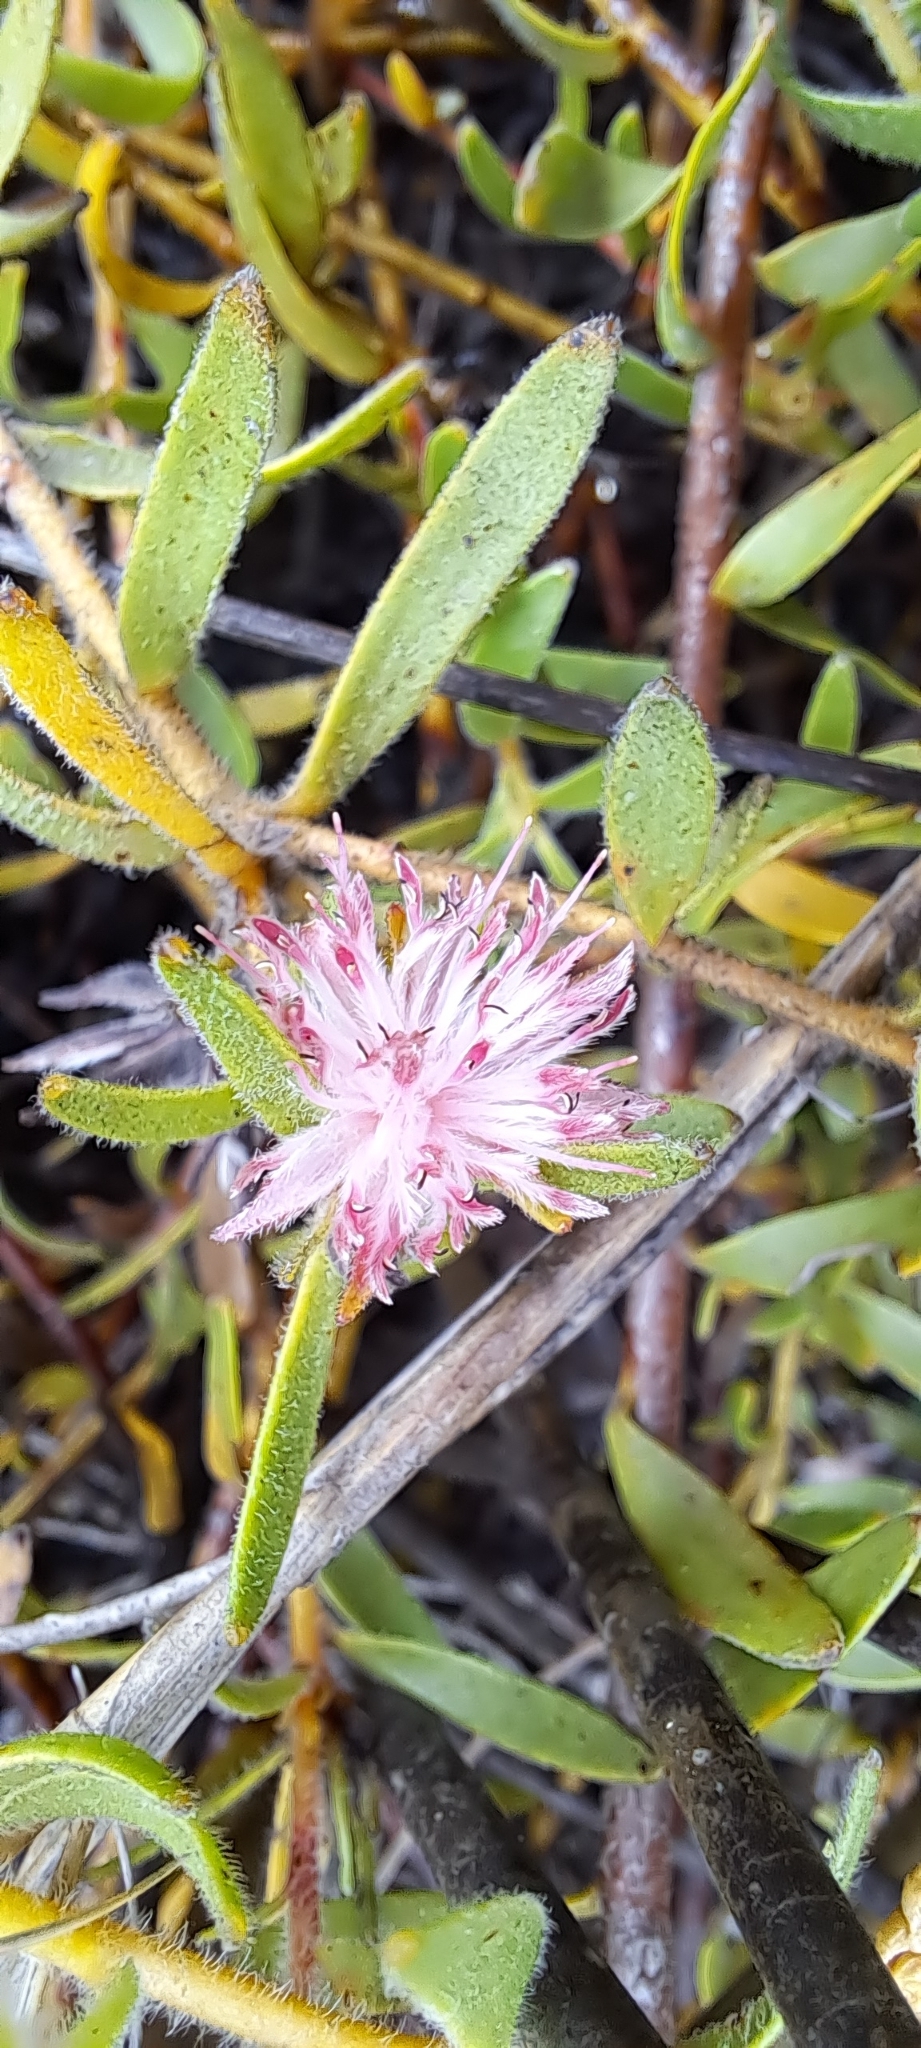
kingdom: Plantae
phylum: Tracheophyta
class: Magnoliopsida
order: Proteales
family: Proteaceae
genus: Diastella
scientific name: Diastella divaricata
